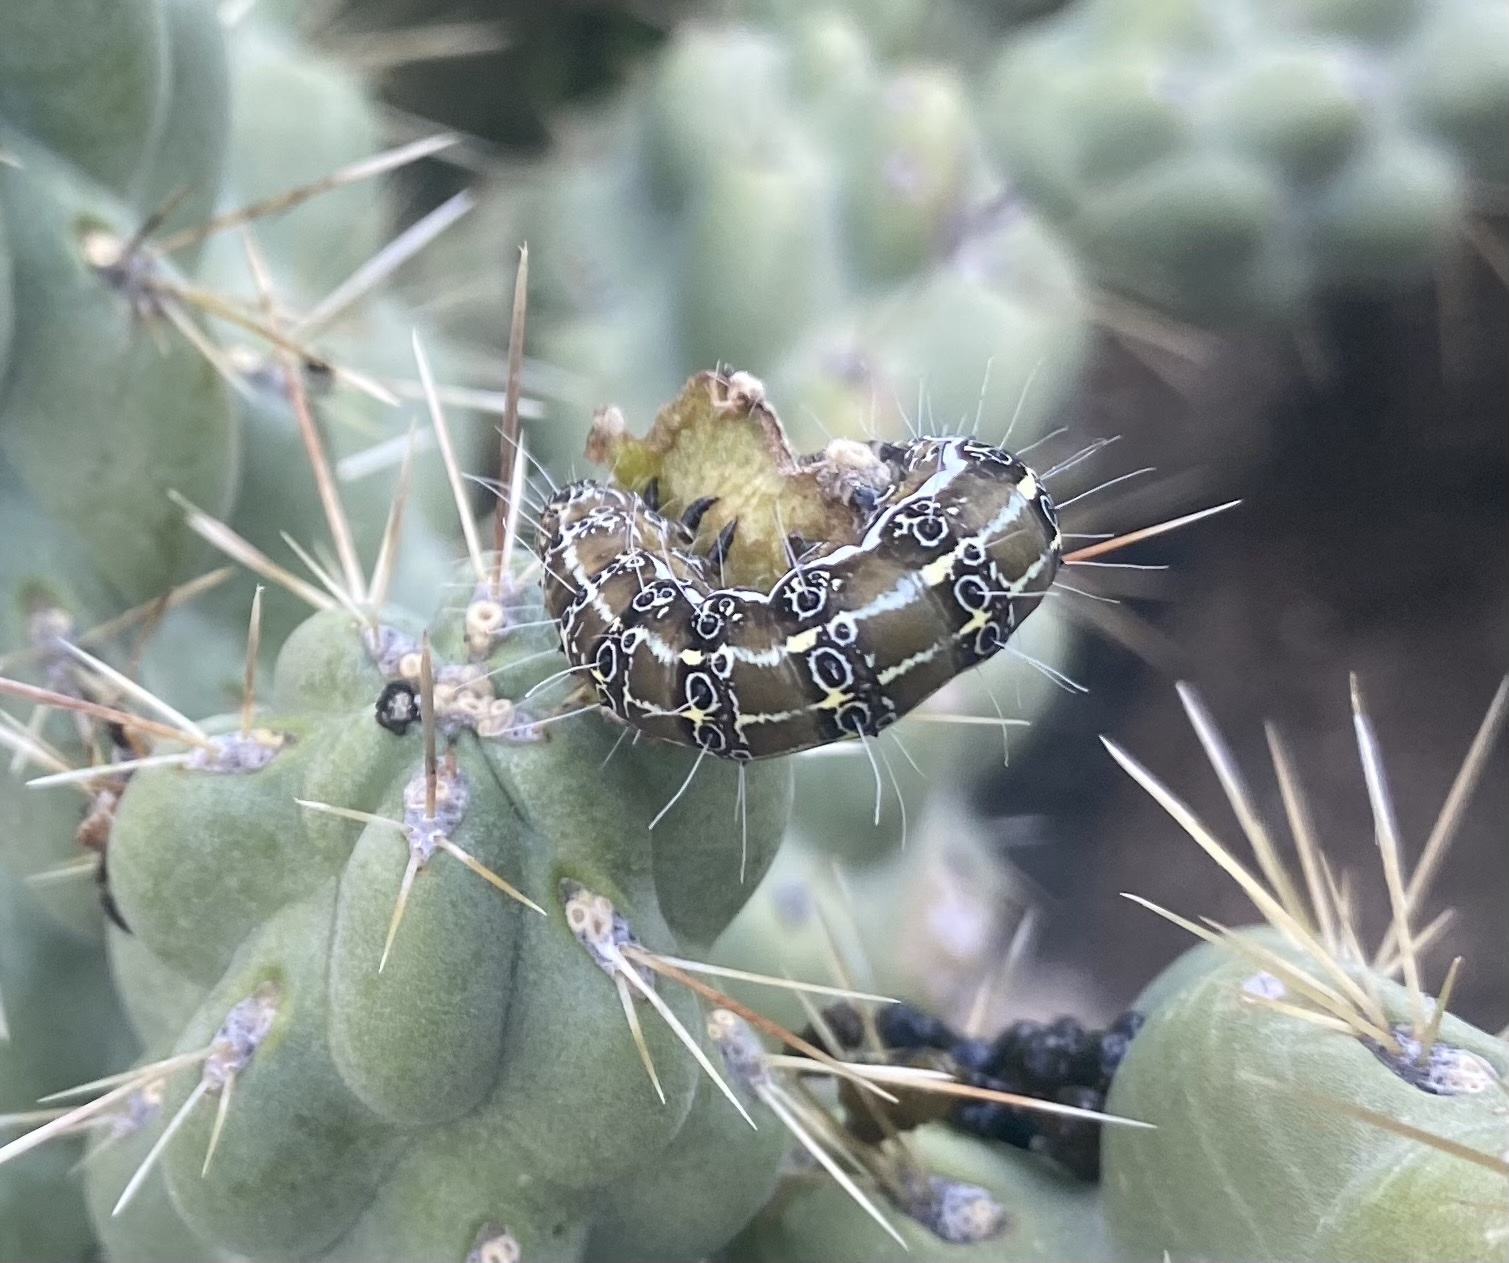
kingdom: Animalia
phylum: Arthropoda
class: Insecta
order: Lepidoptera
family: Noctuidae
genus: Euscirrhopterus
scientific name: Euscirrhopterus cosyra
